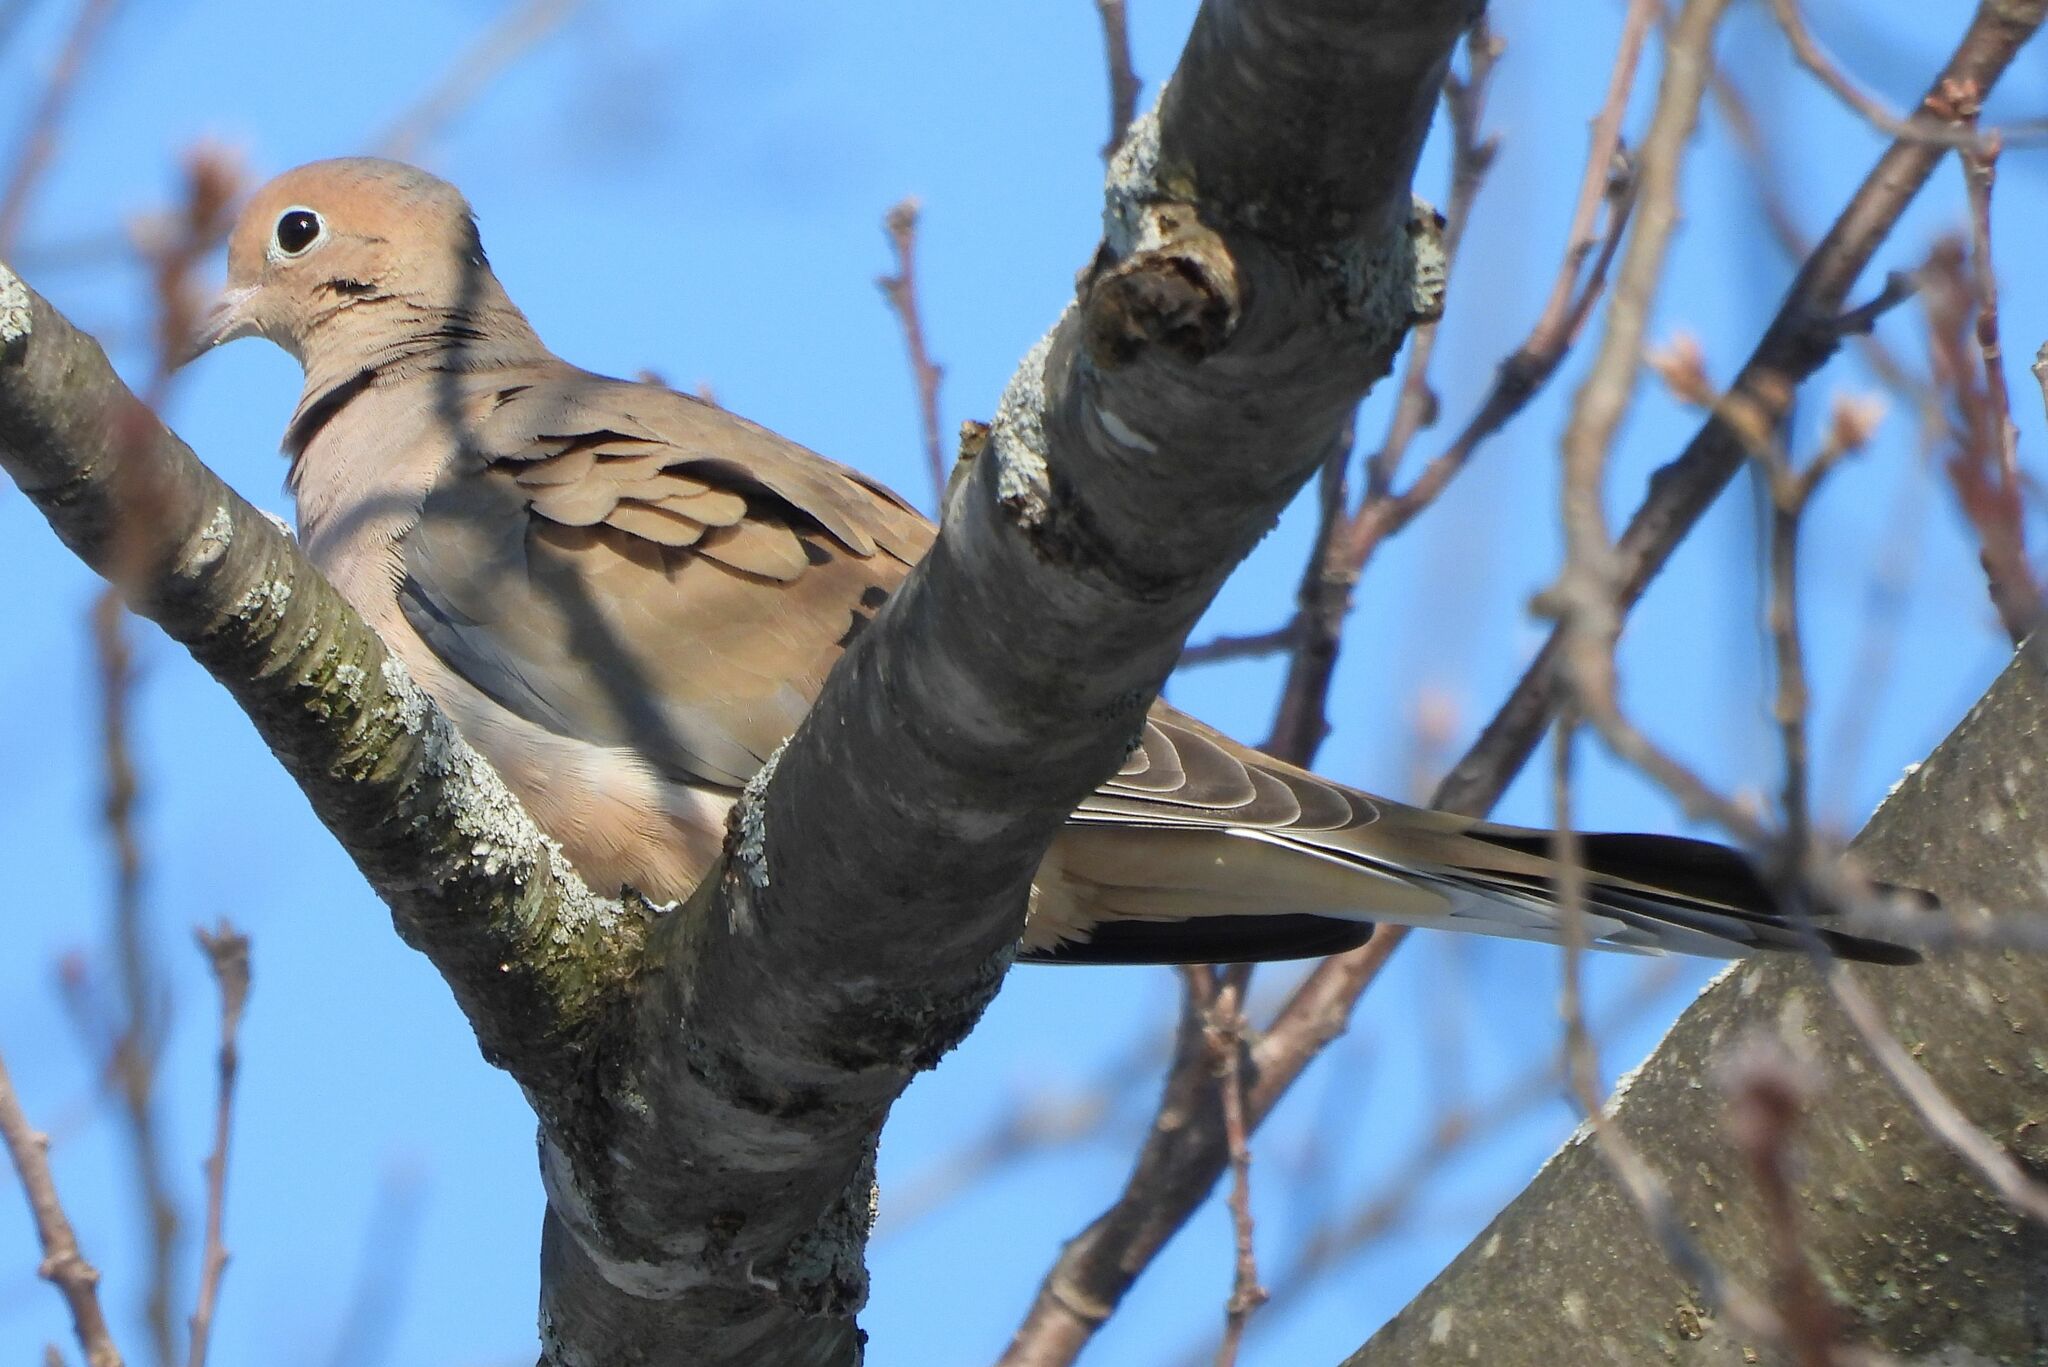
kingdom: Animalia
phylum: Chordata
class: Aves
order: Columbiformes
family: Columbidae
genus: Zenaida
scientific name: Zenaida macroura
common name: Mourning dove
